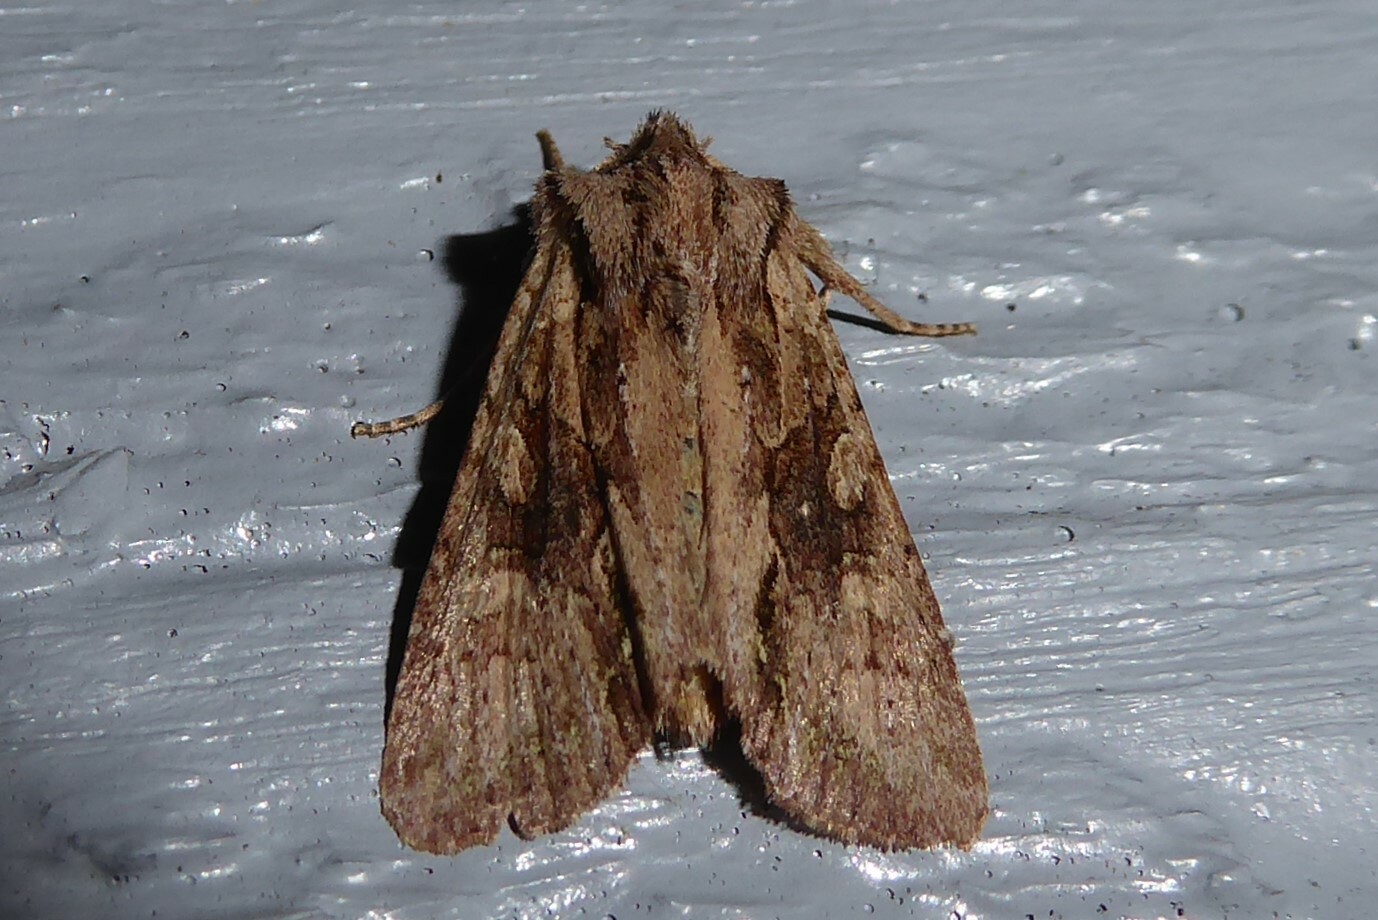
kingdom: Animalia
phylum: Arthropoda
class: Insecta
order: Lepidoptera
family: Noctuidae
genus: Ichneutica
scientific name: Ichneutica
